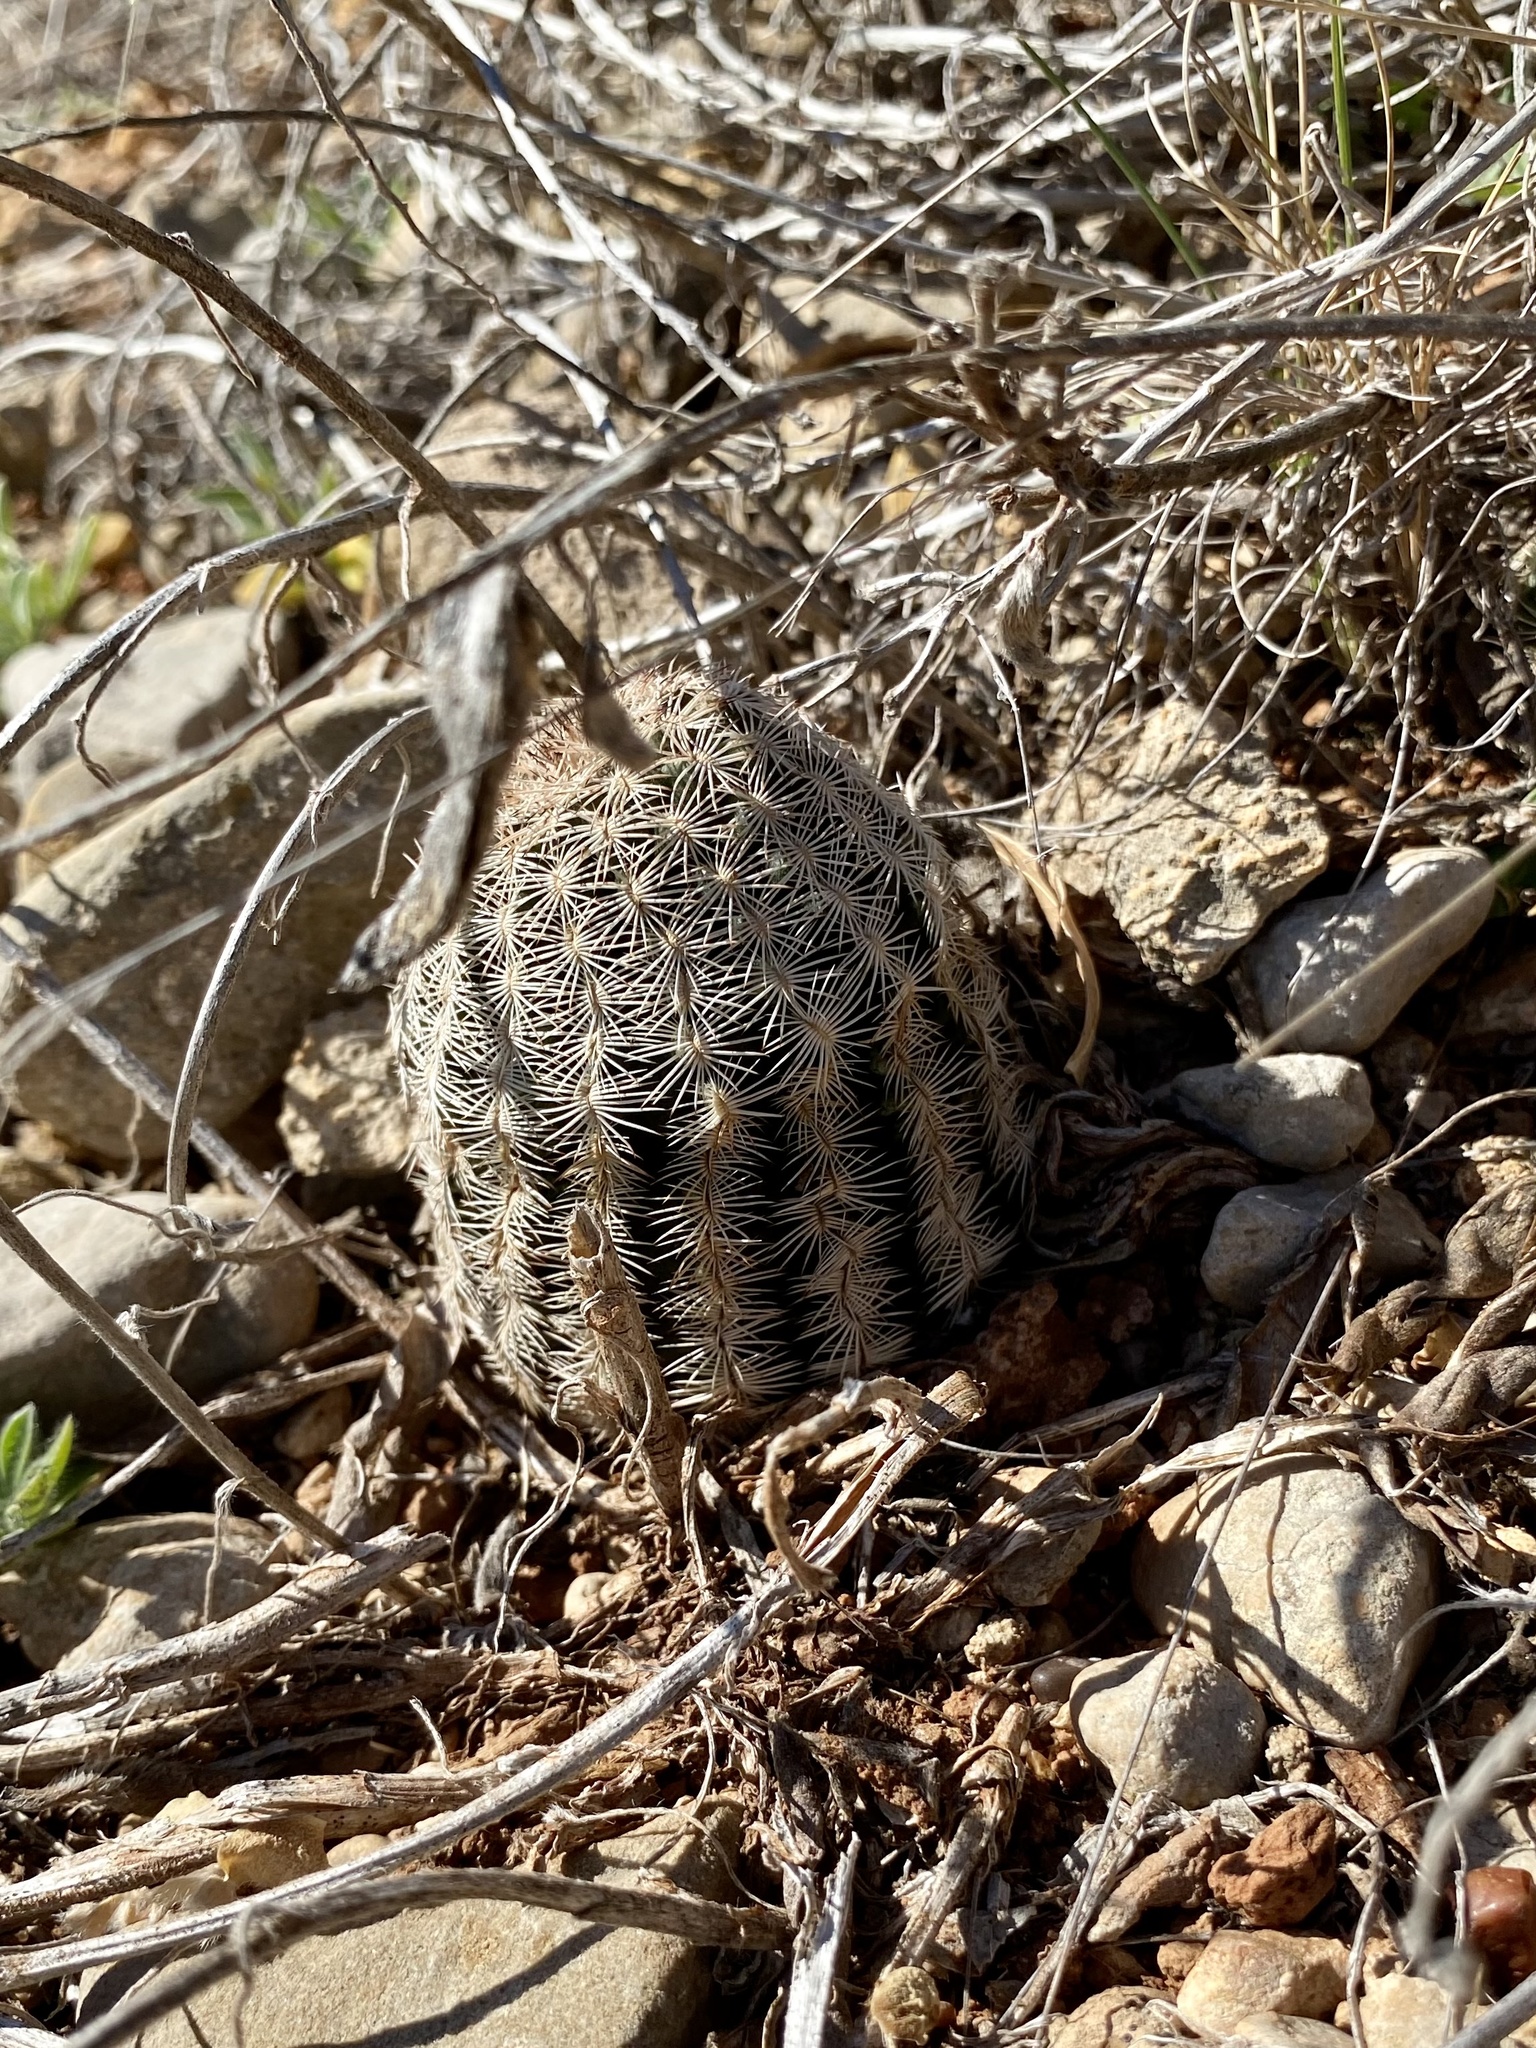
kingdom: Plantae
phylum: Tracheophyta
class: Magnoliopsida
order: Caryophyllales
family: Cactaceae
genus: Echinocereus
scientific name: Echinocereus reichenbachii
